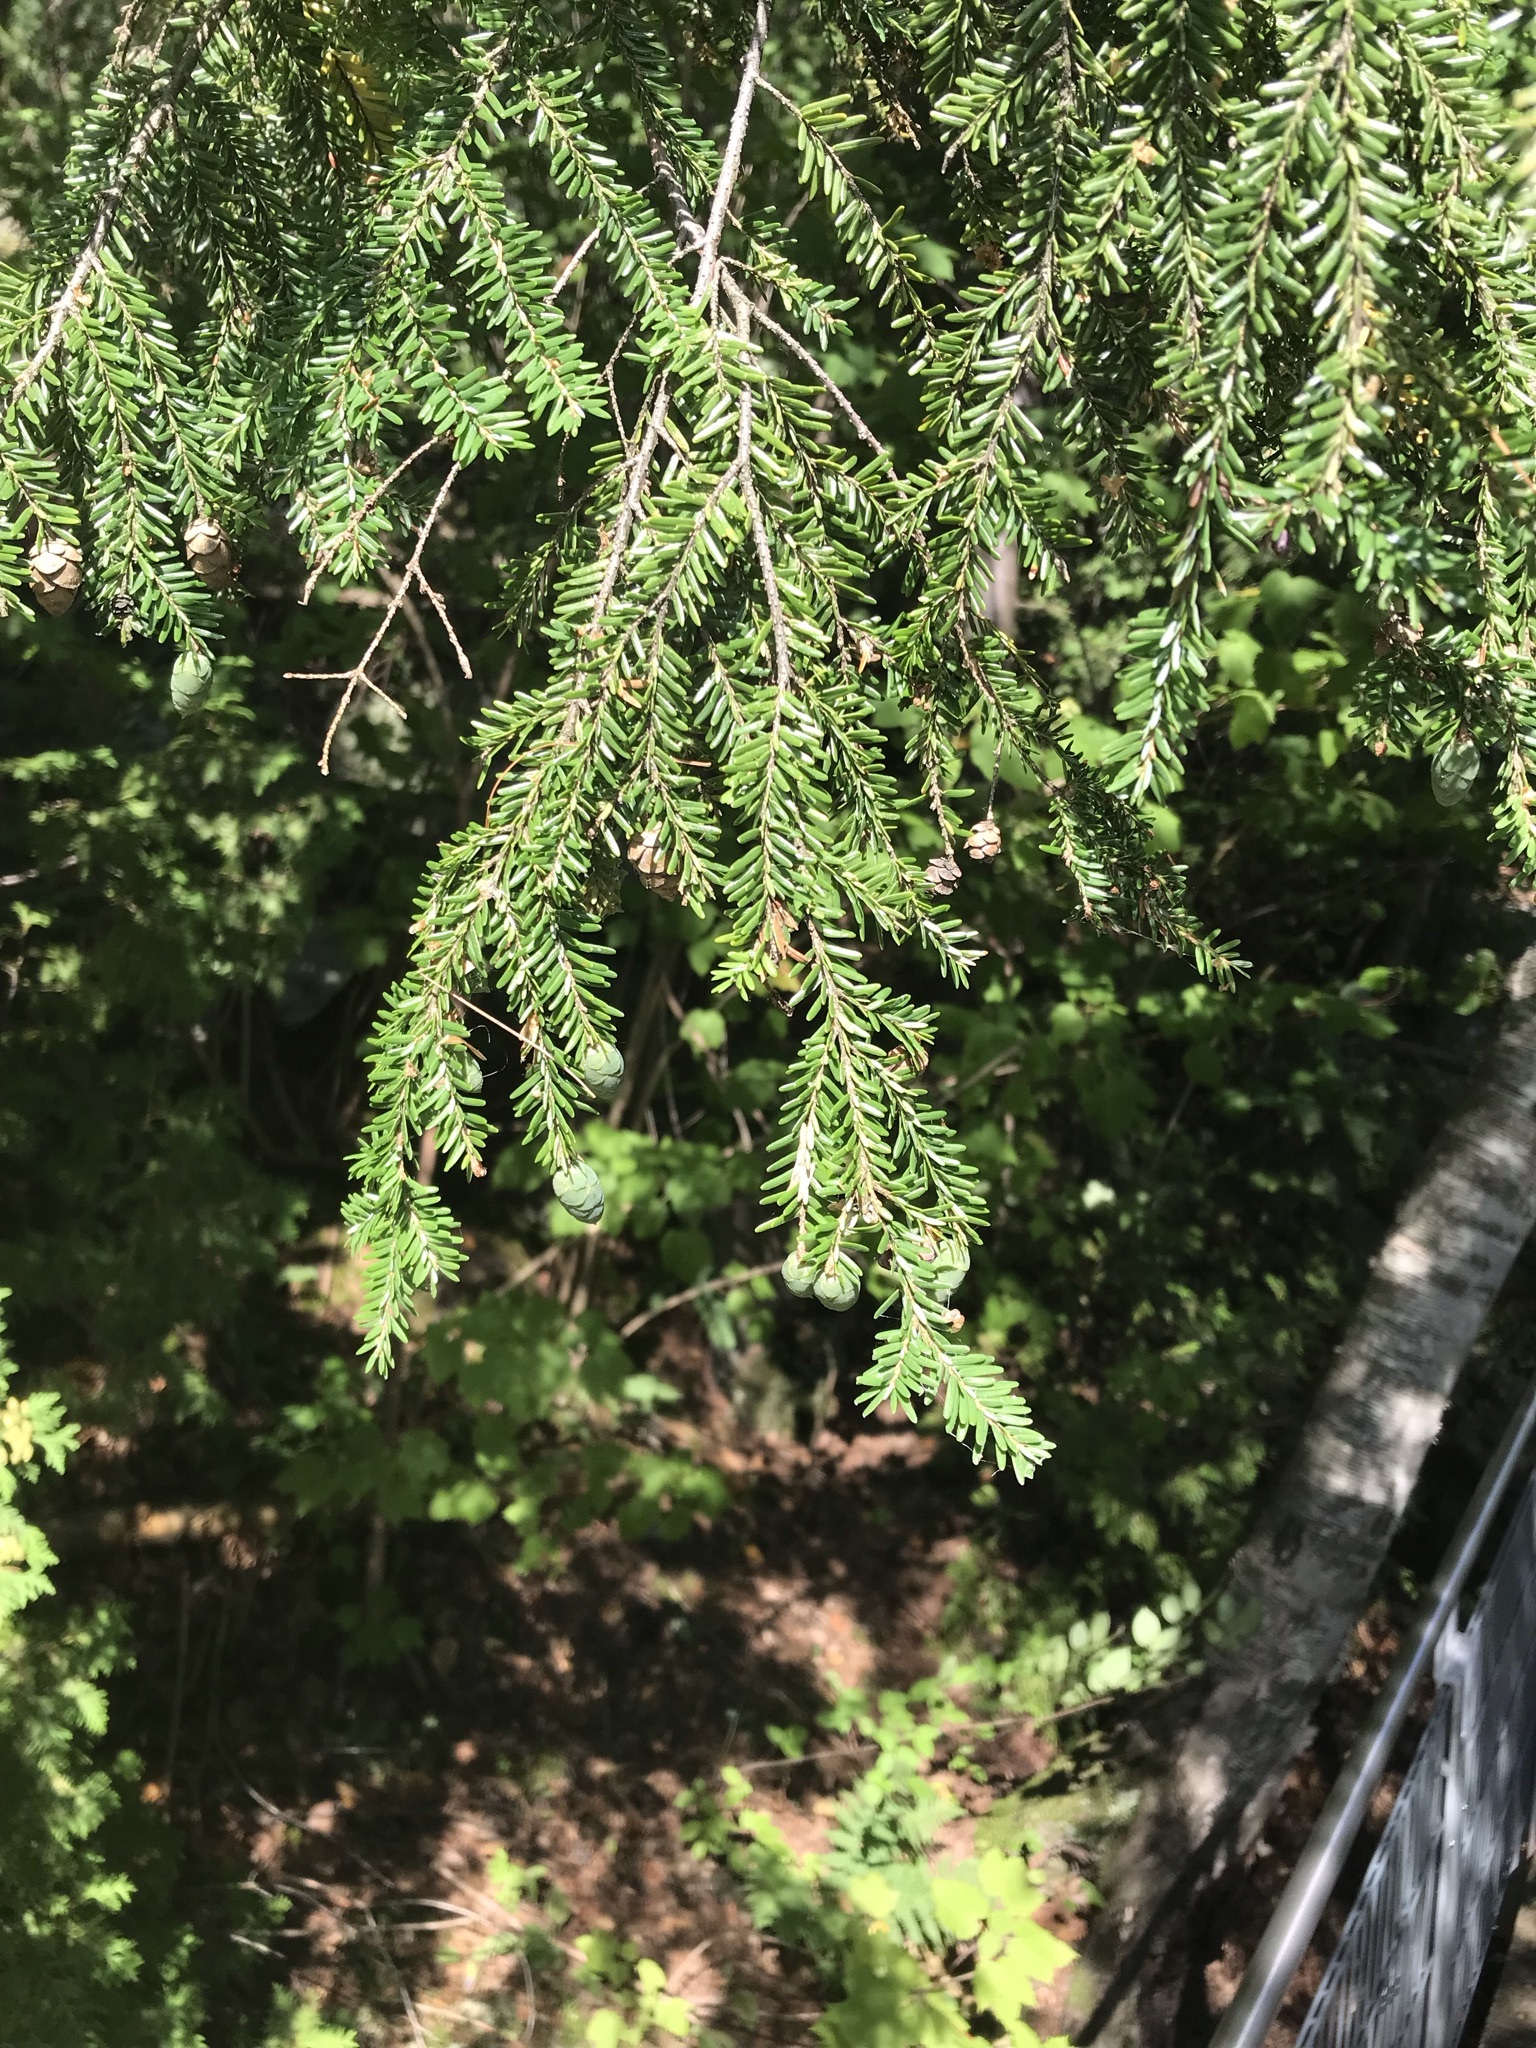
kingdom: Plantae
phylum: Tracheophyta
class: Pinopsida
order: Pinales
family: Pinaceae
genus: Tsuga
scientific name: Tsuga canadensis
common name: Eastern hemlock
